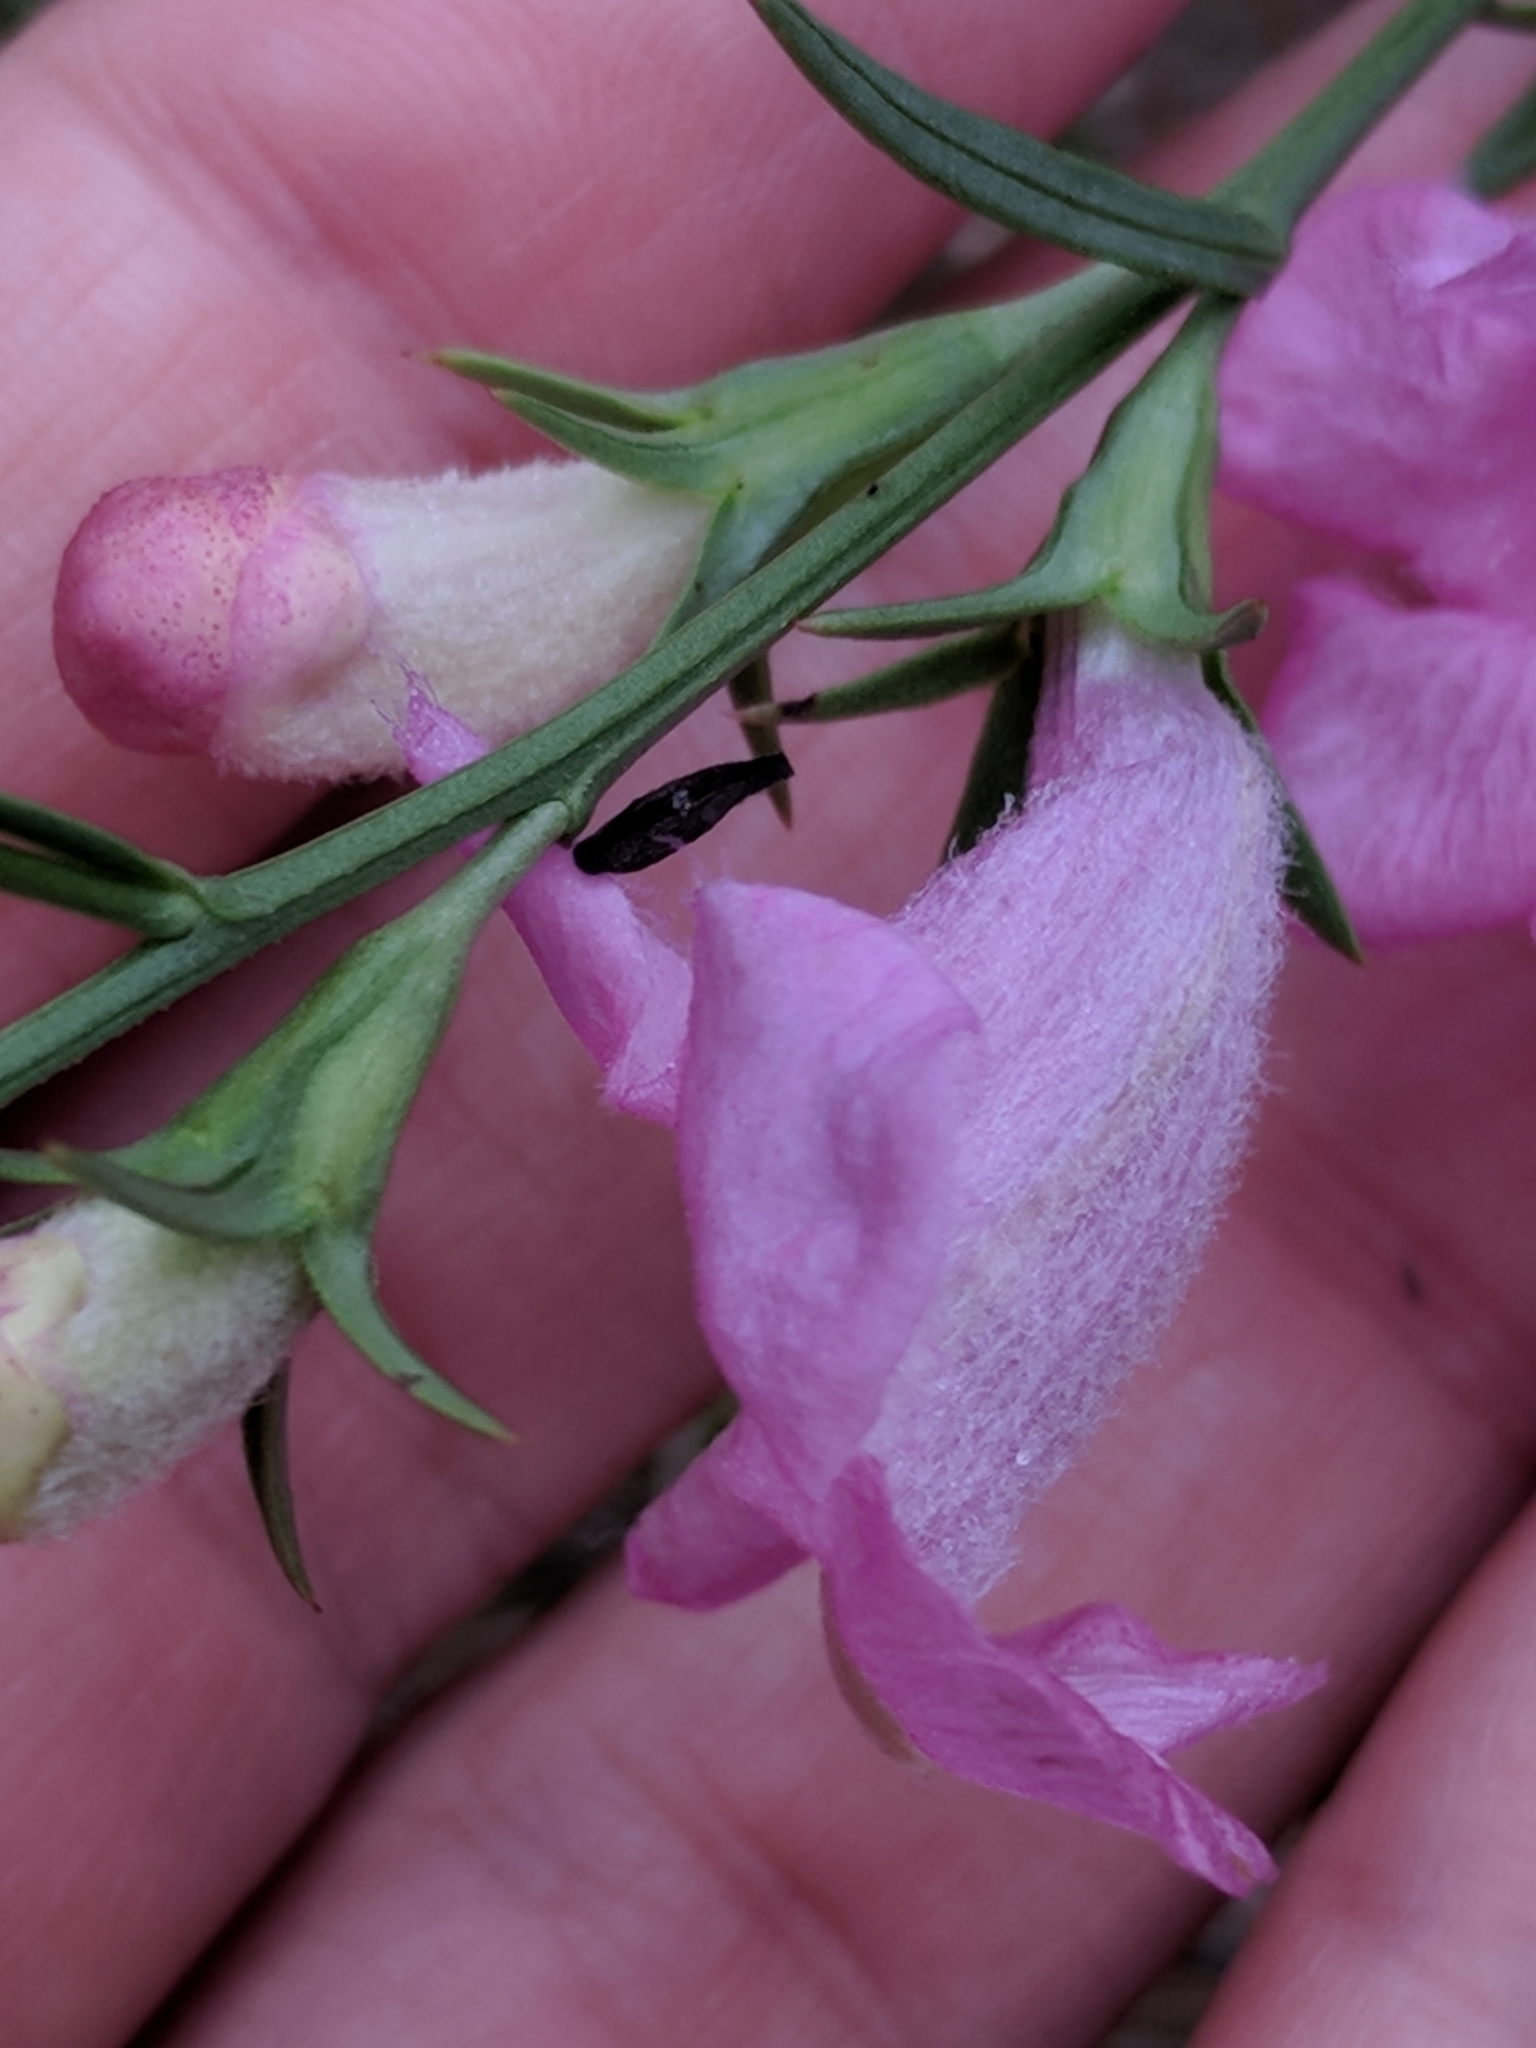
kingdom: Plantae
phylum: Tracheophyta
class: Magnoliopsida
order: Lamiales
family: Orobanchaceae
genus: Agalinis
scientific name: Agalinis heterophylla
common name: Prairie agalinis
